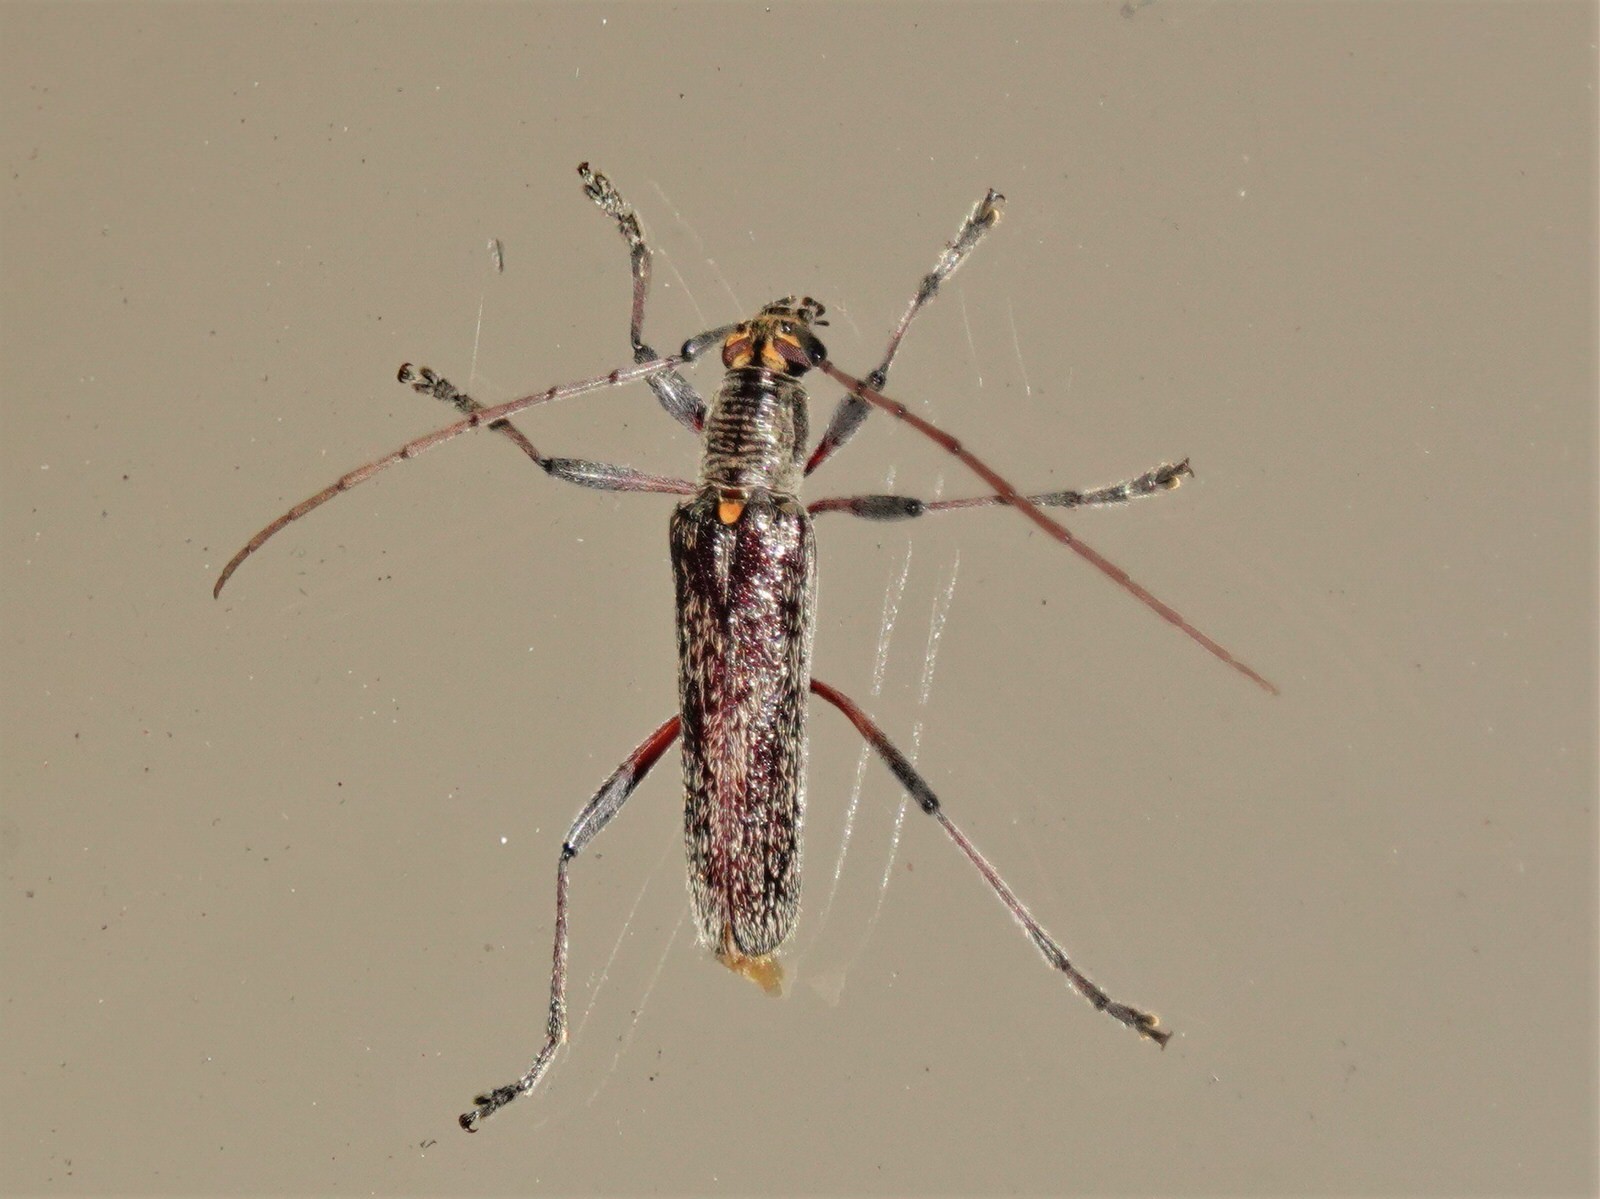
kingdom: Animalia
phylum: Arthropoda
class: Insecta
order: Coleoptera
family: Cerambycidae
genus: Oemona
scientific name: Oemona hirta
